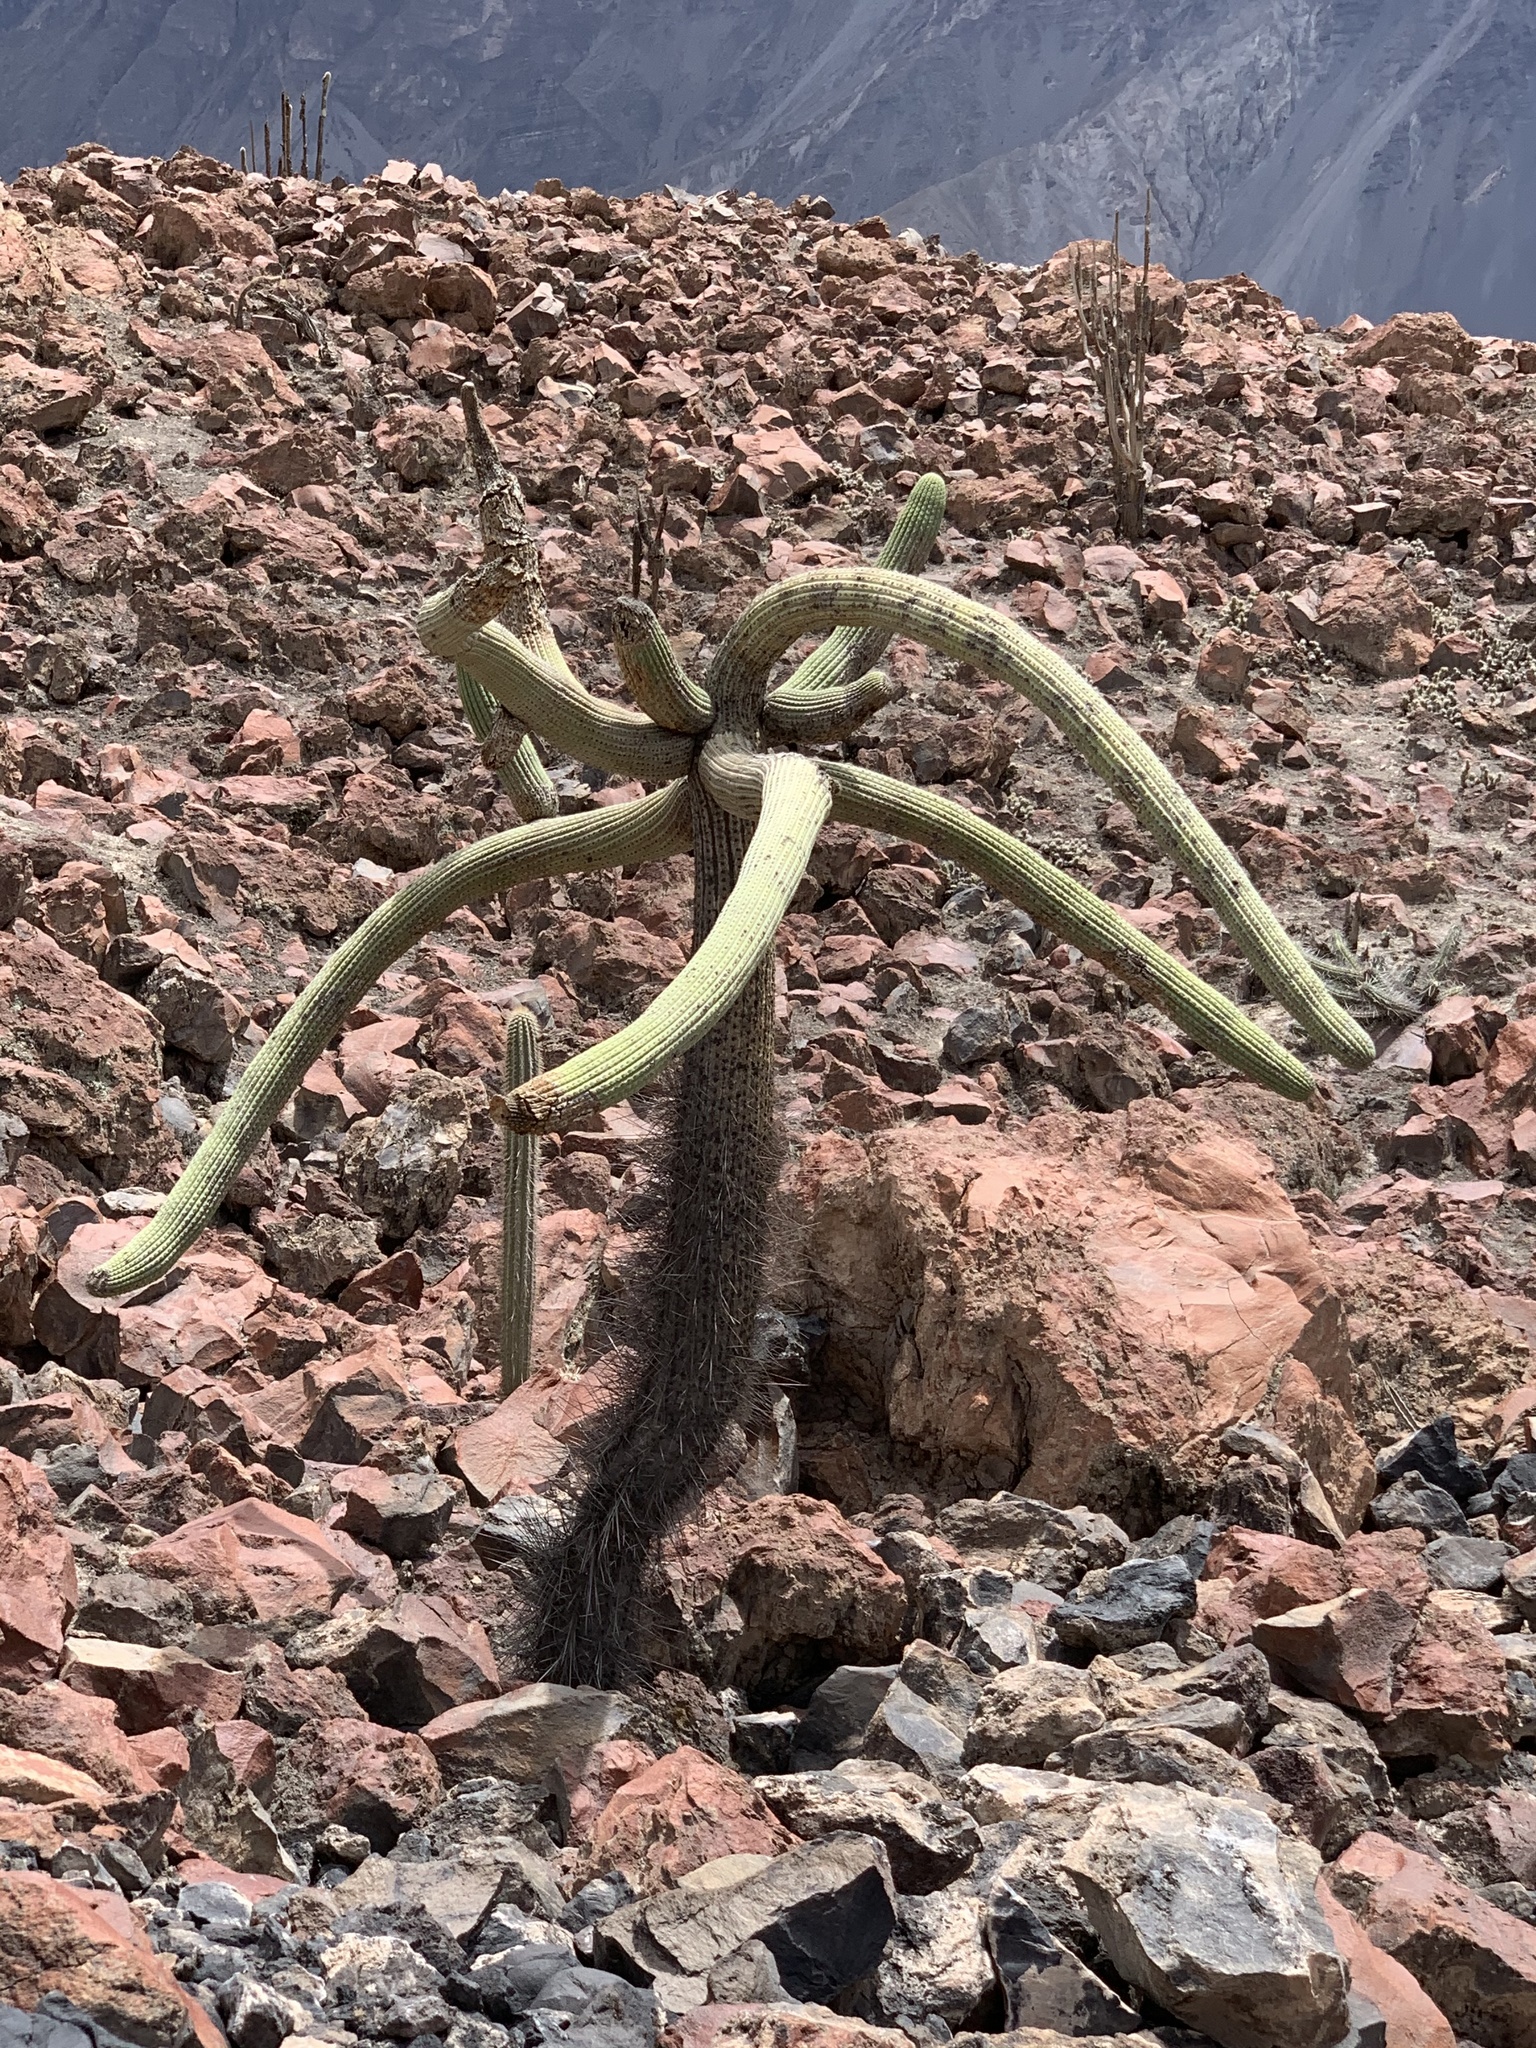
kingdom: Plantae
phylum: Tracheophyta
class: Magnoliopsida
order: Caryophyllales
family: Cactaceae
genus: Browningia
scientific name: Browningia candelaris
